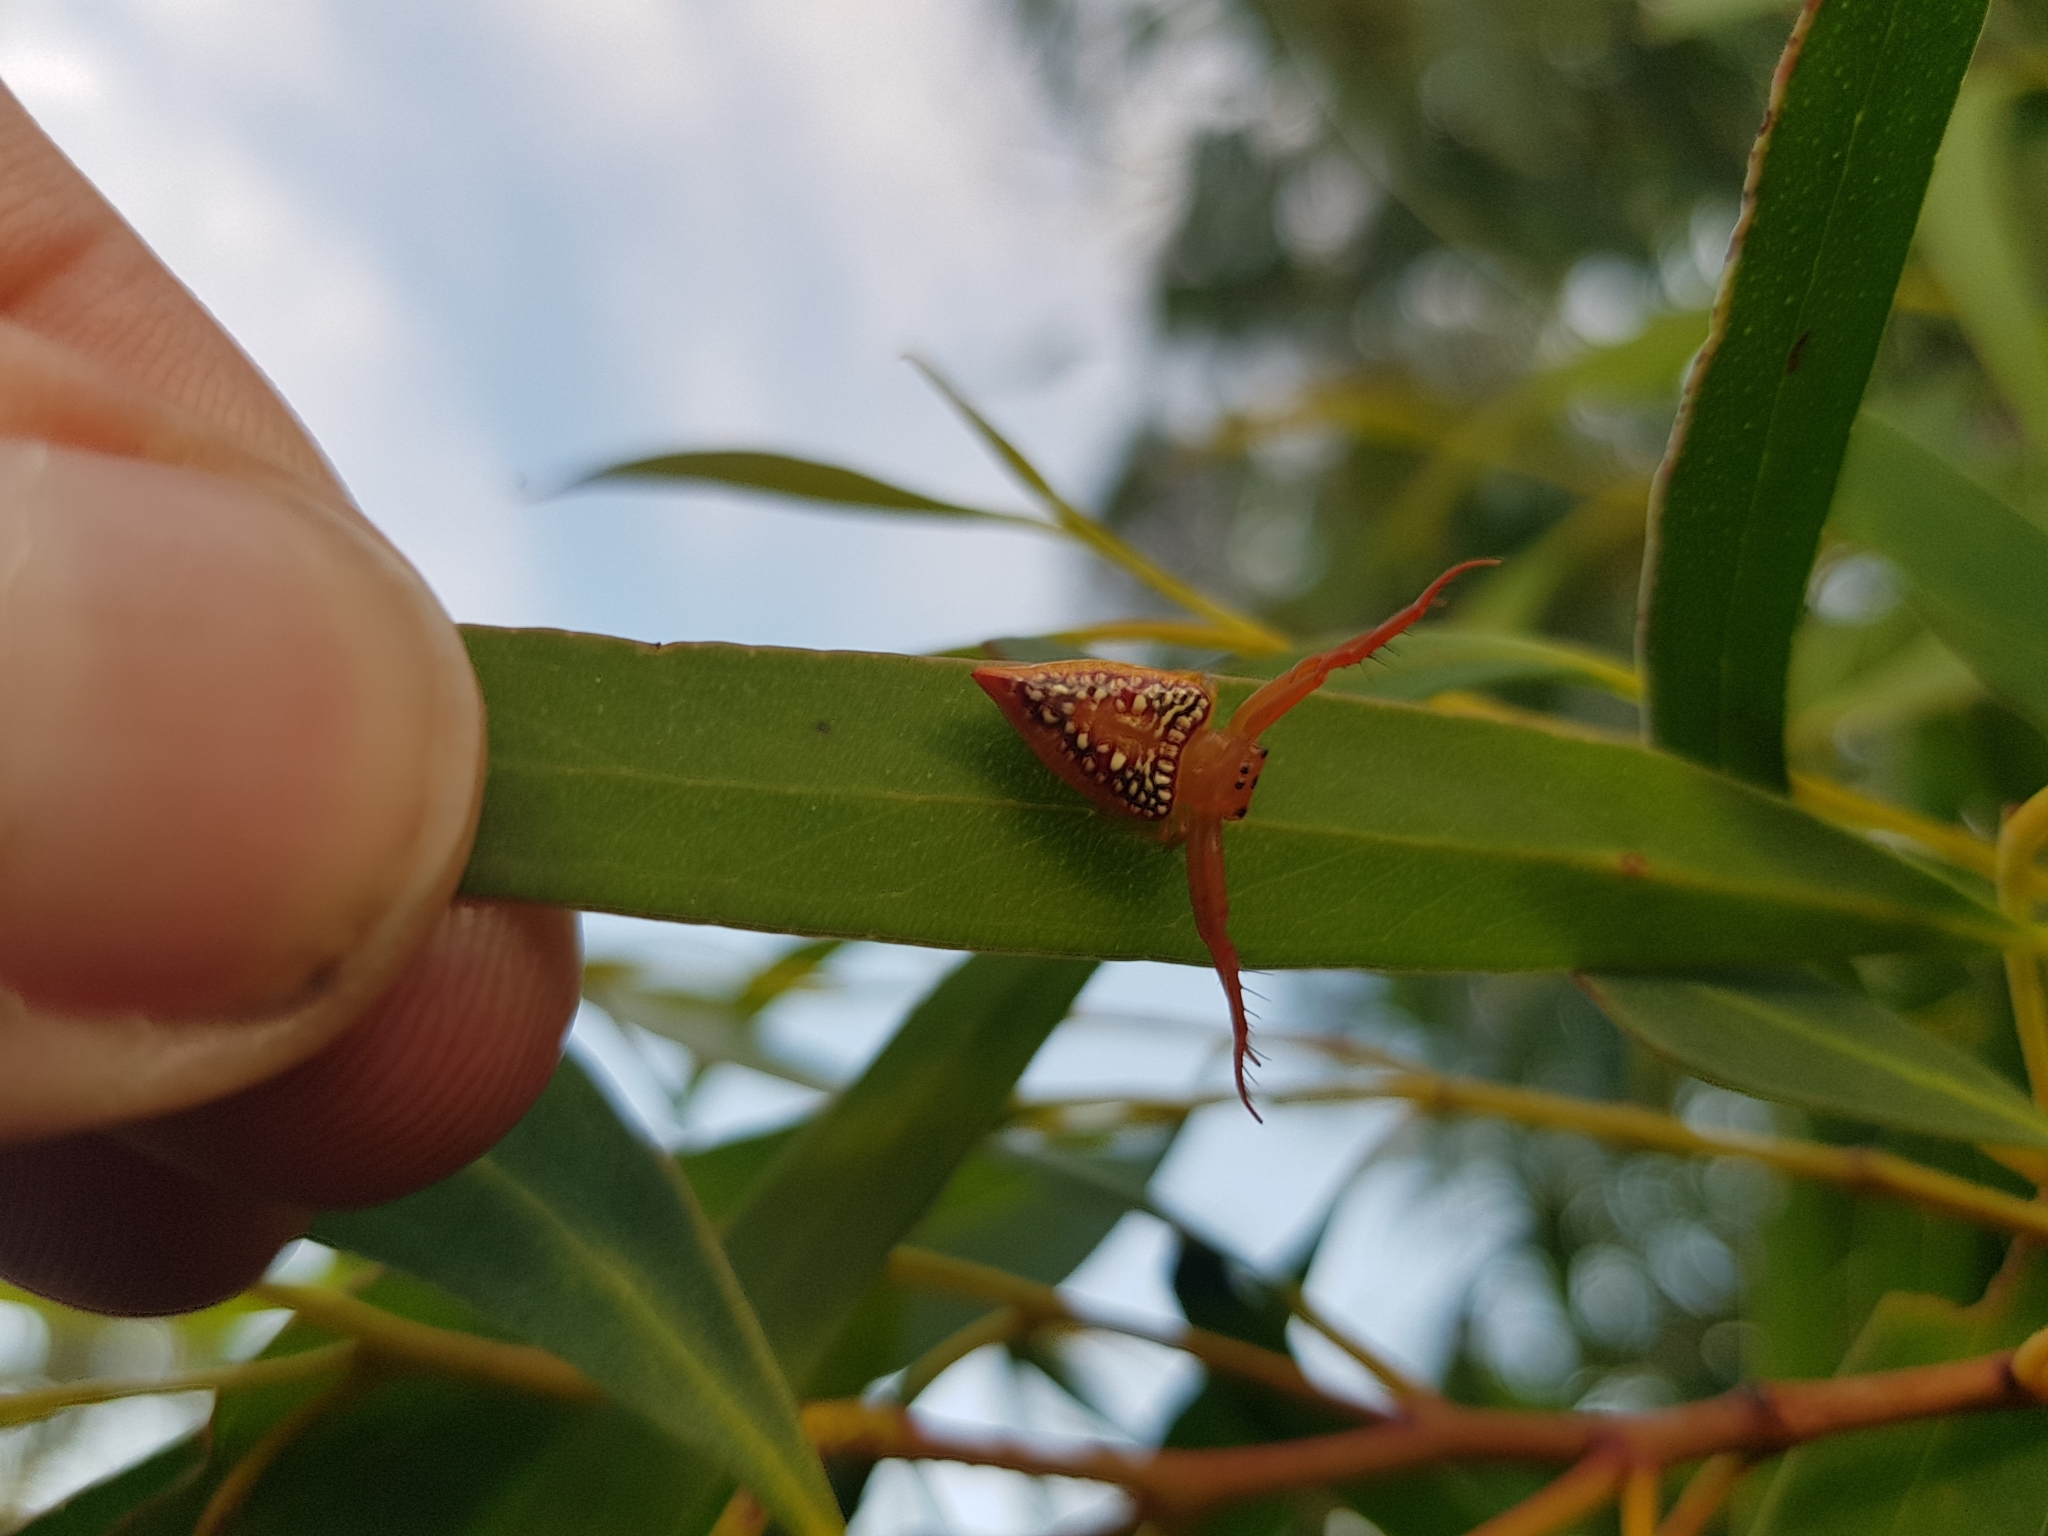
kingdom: Animalia
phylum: Arthropoda
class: Arachnida
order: Araneae
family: Arkyidae
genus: Arkys
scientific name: Arkys walckenaeri
